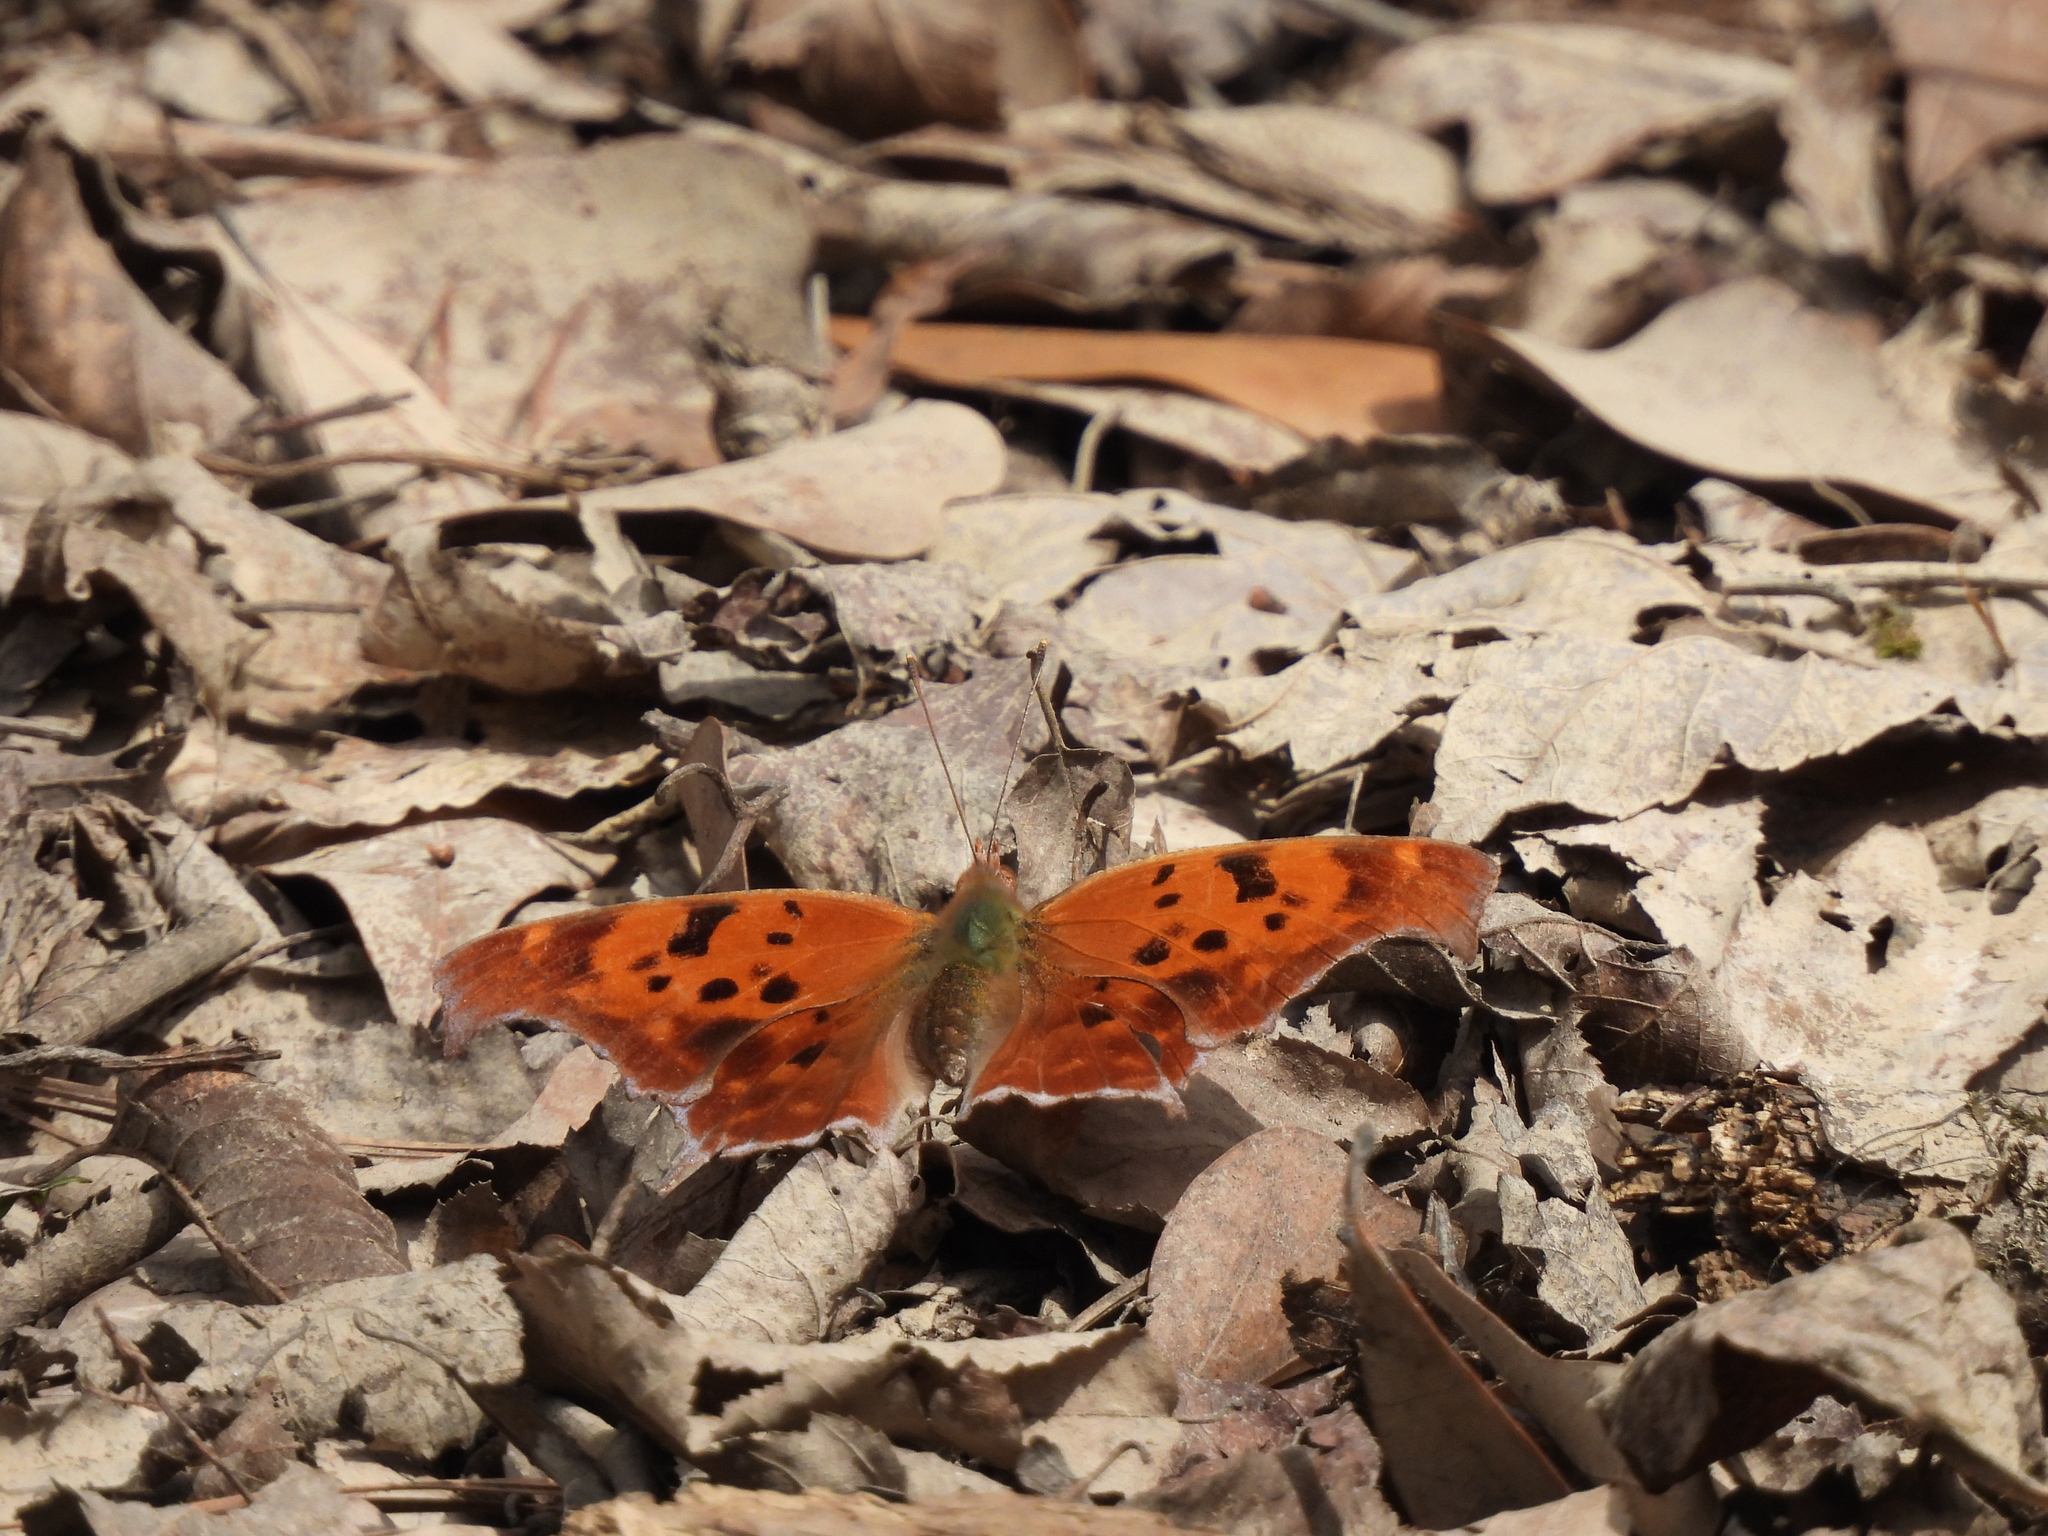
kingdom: Animalia
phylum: Arthropoda
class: Insecta
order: Lepidoptera
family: Nymphalidae
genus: Polygonia
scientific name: Polygonia interrogationis
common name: Question mark
